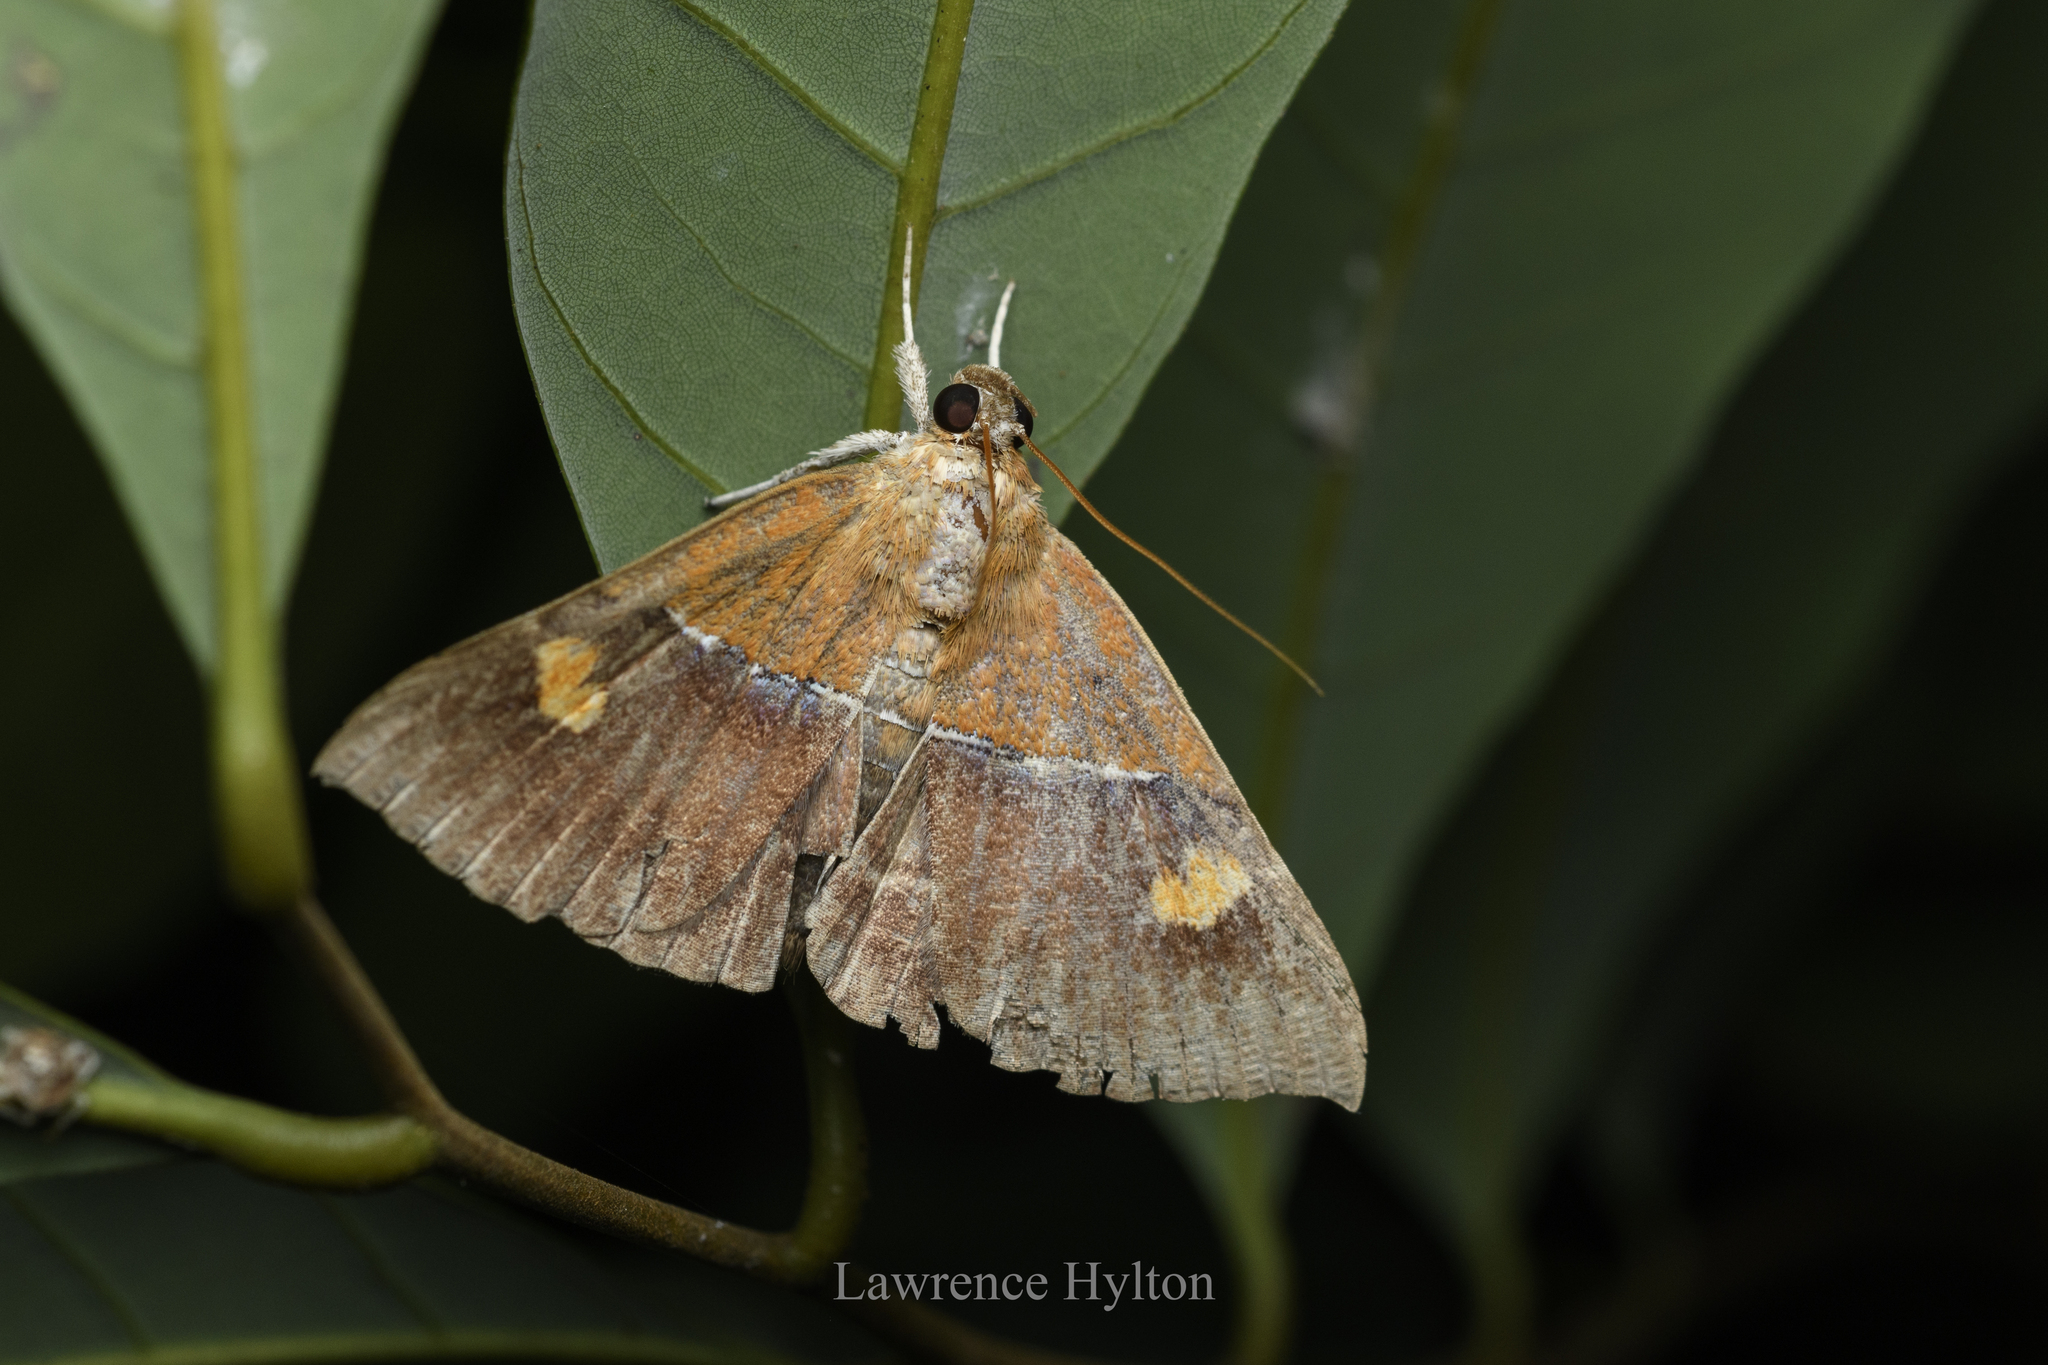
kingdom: Animalia
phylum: Arthropoda
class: Insecta
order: Lepidoptera
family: Erebidae
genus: Sympis
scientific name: Sympis rufibasis
